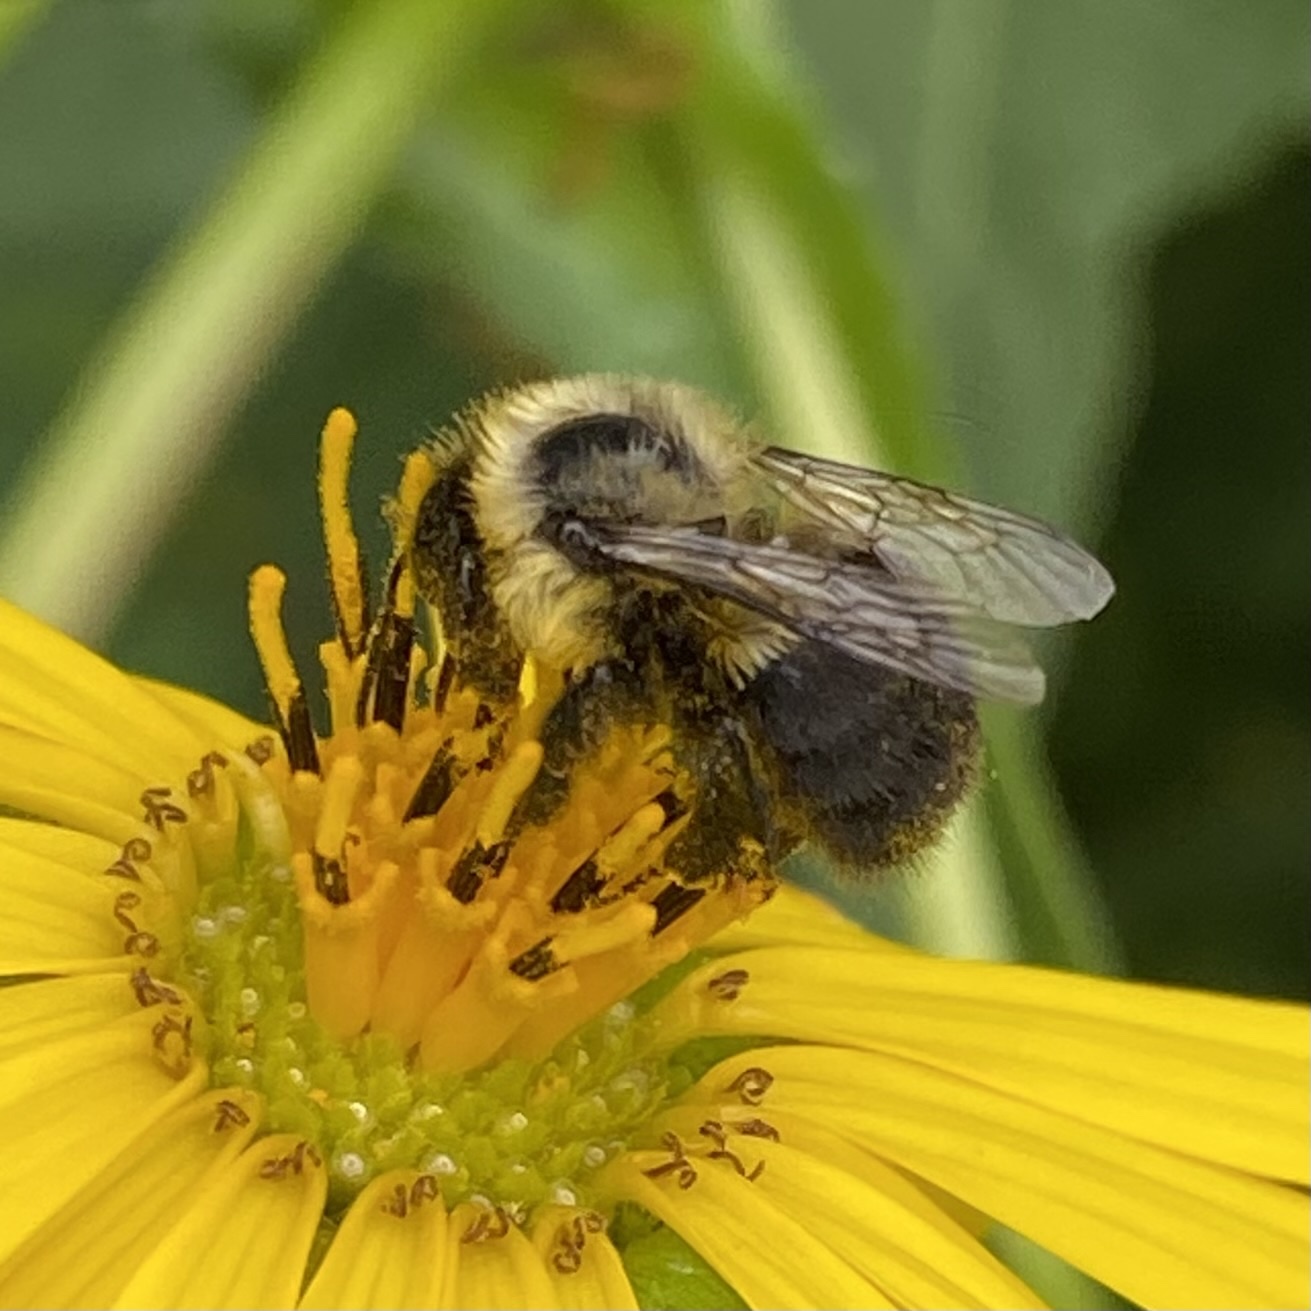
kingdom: Animalia
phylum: Arthropoda
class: Insecta
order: Hymenoptera
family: Apidae
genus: Bombus
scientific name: Bombus impatiens
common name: Common eastern bumble bee
